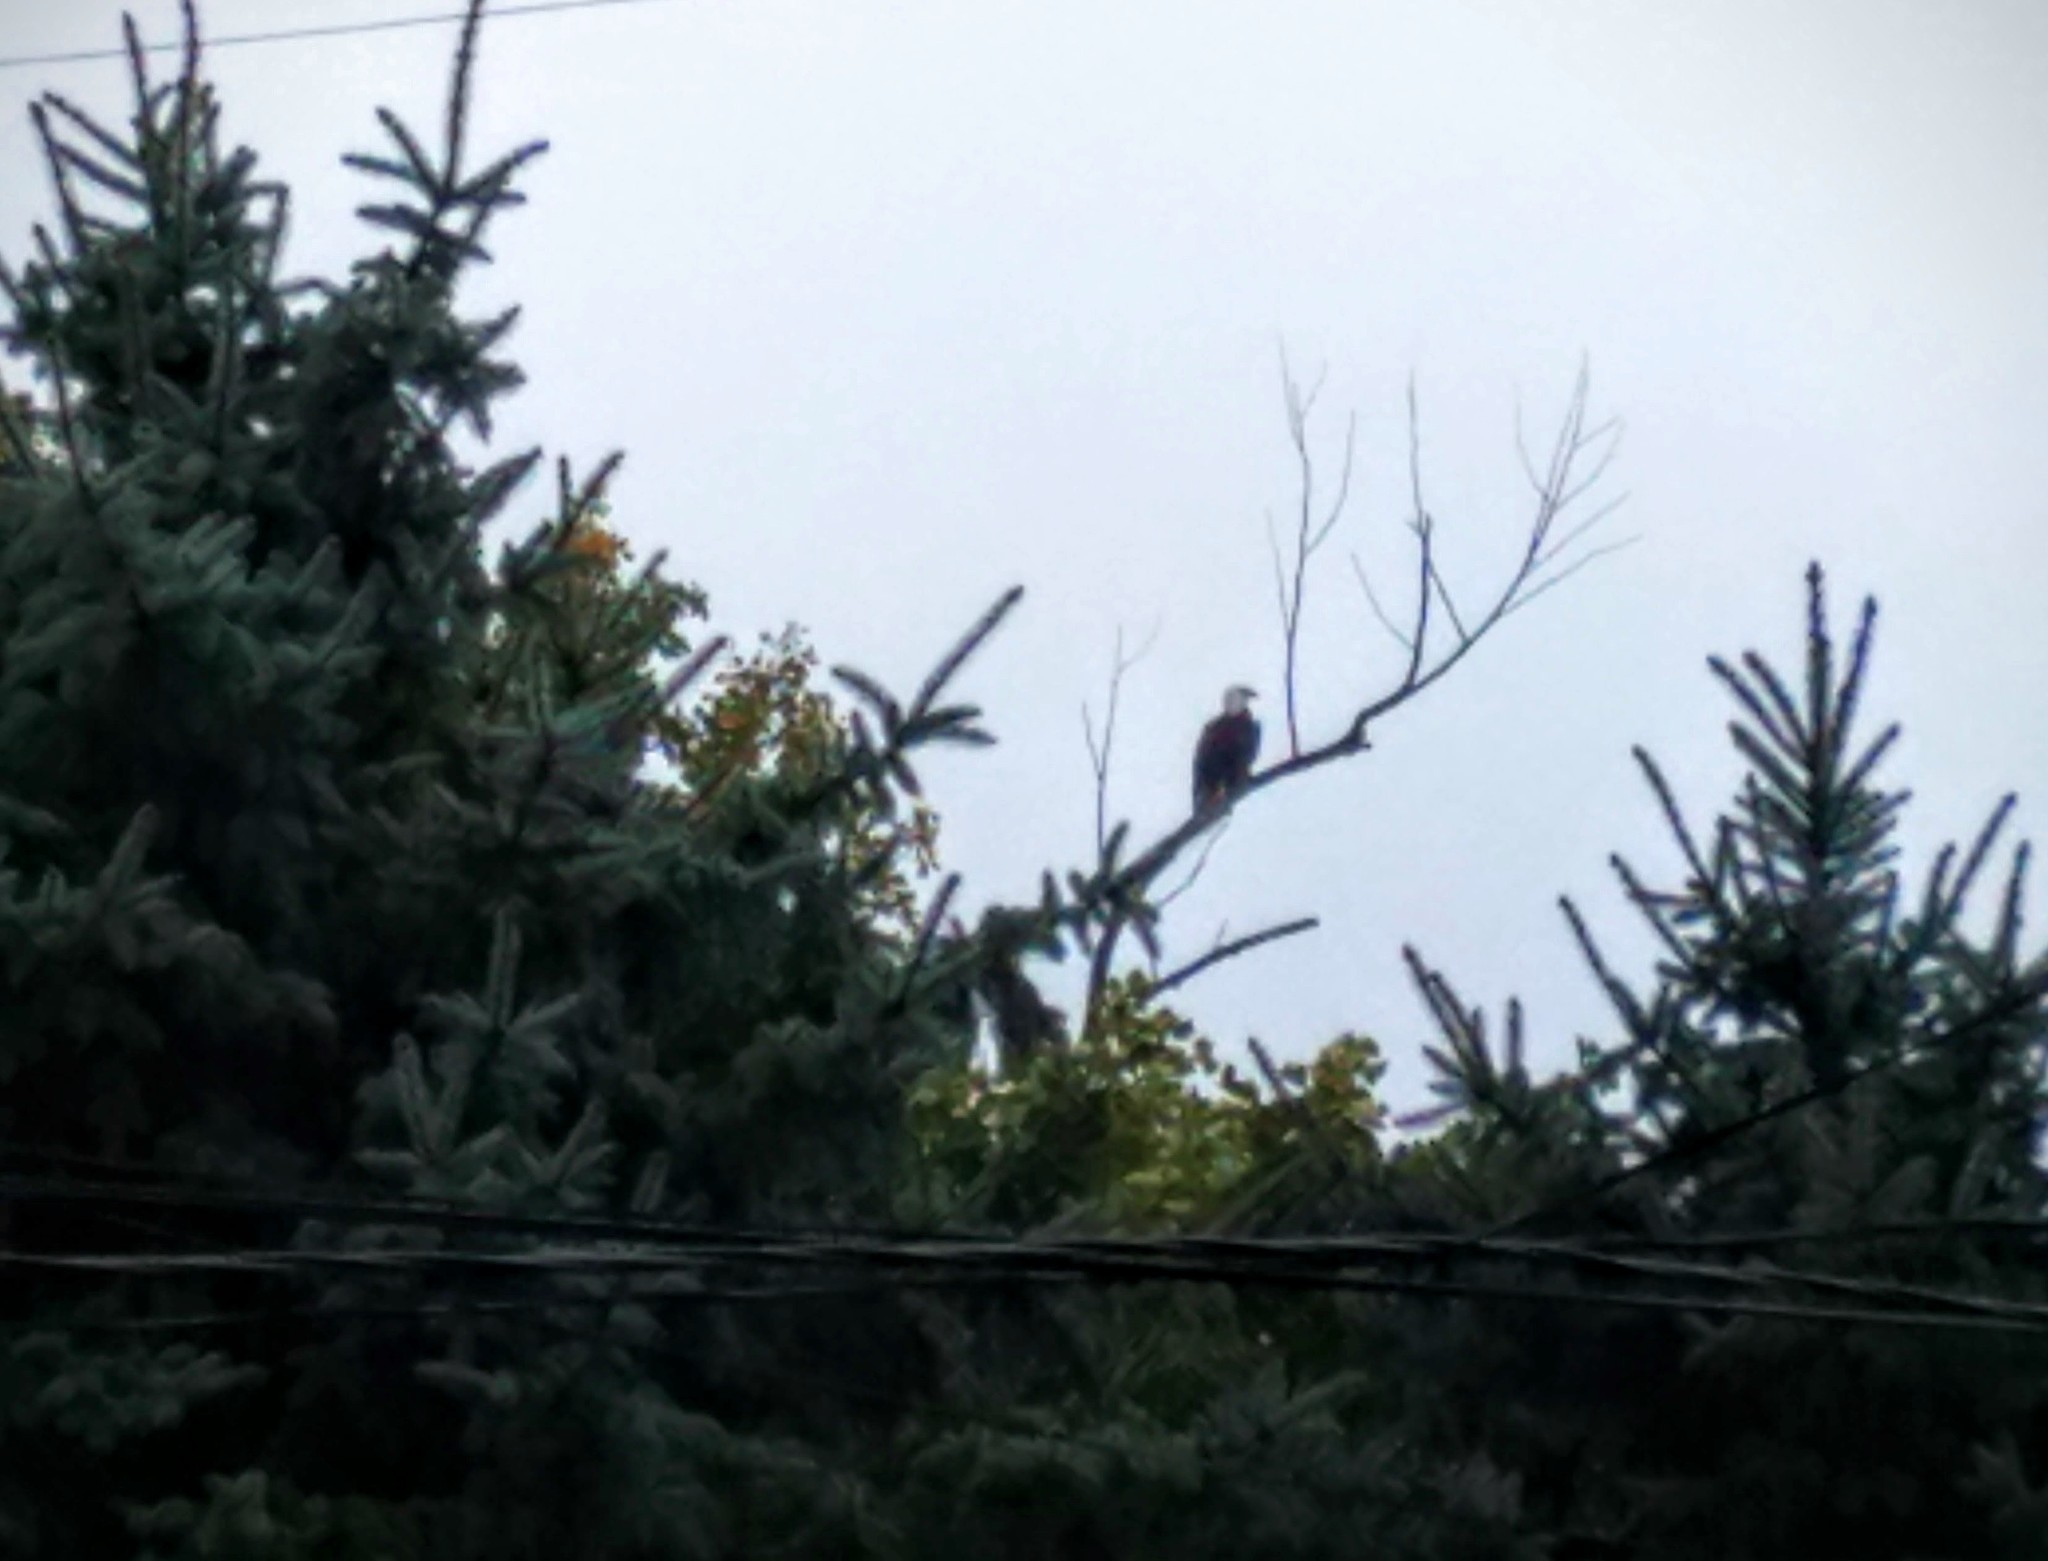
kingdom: Animalia
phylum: Chordata
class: Aves
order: Accipitriformes
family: Accipitridae
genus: Haliaeetus
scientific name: Haliaeetus leucocephalus
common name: Bald eagle
